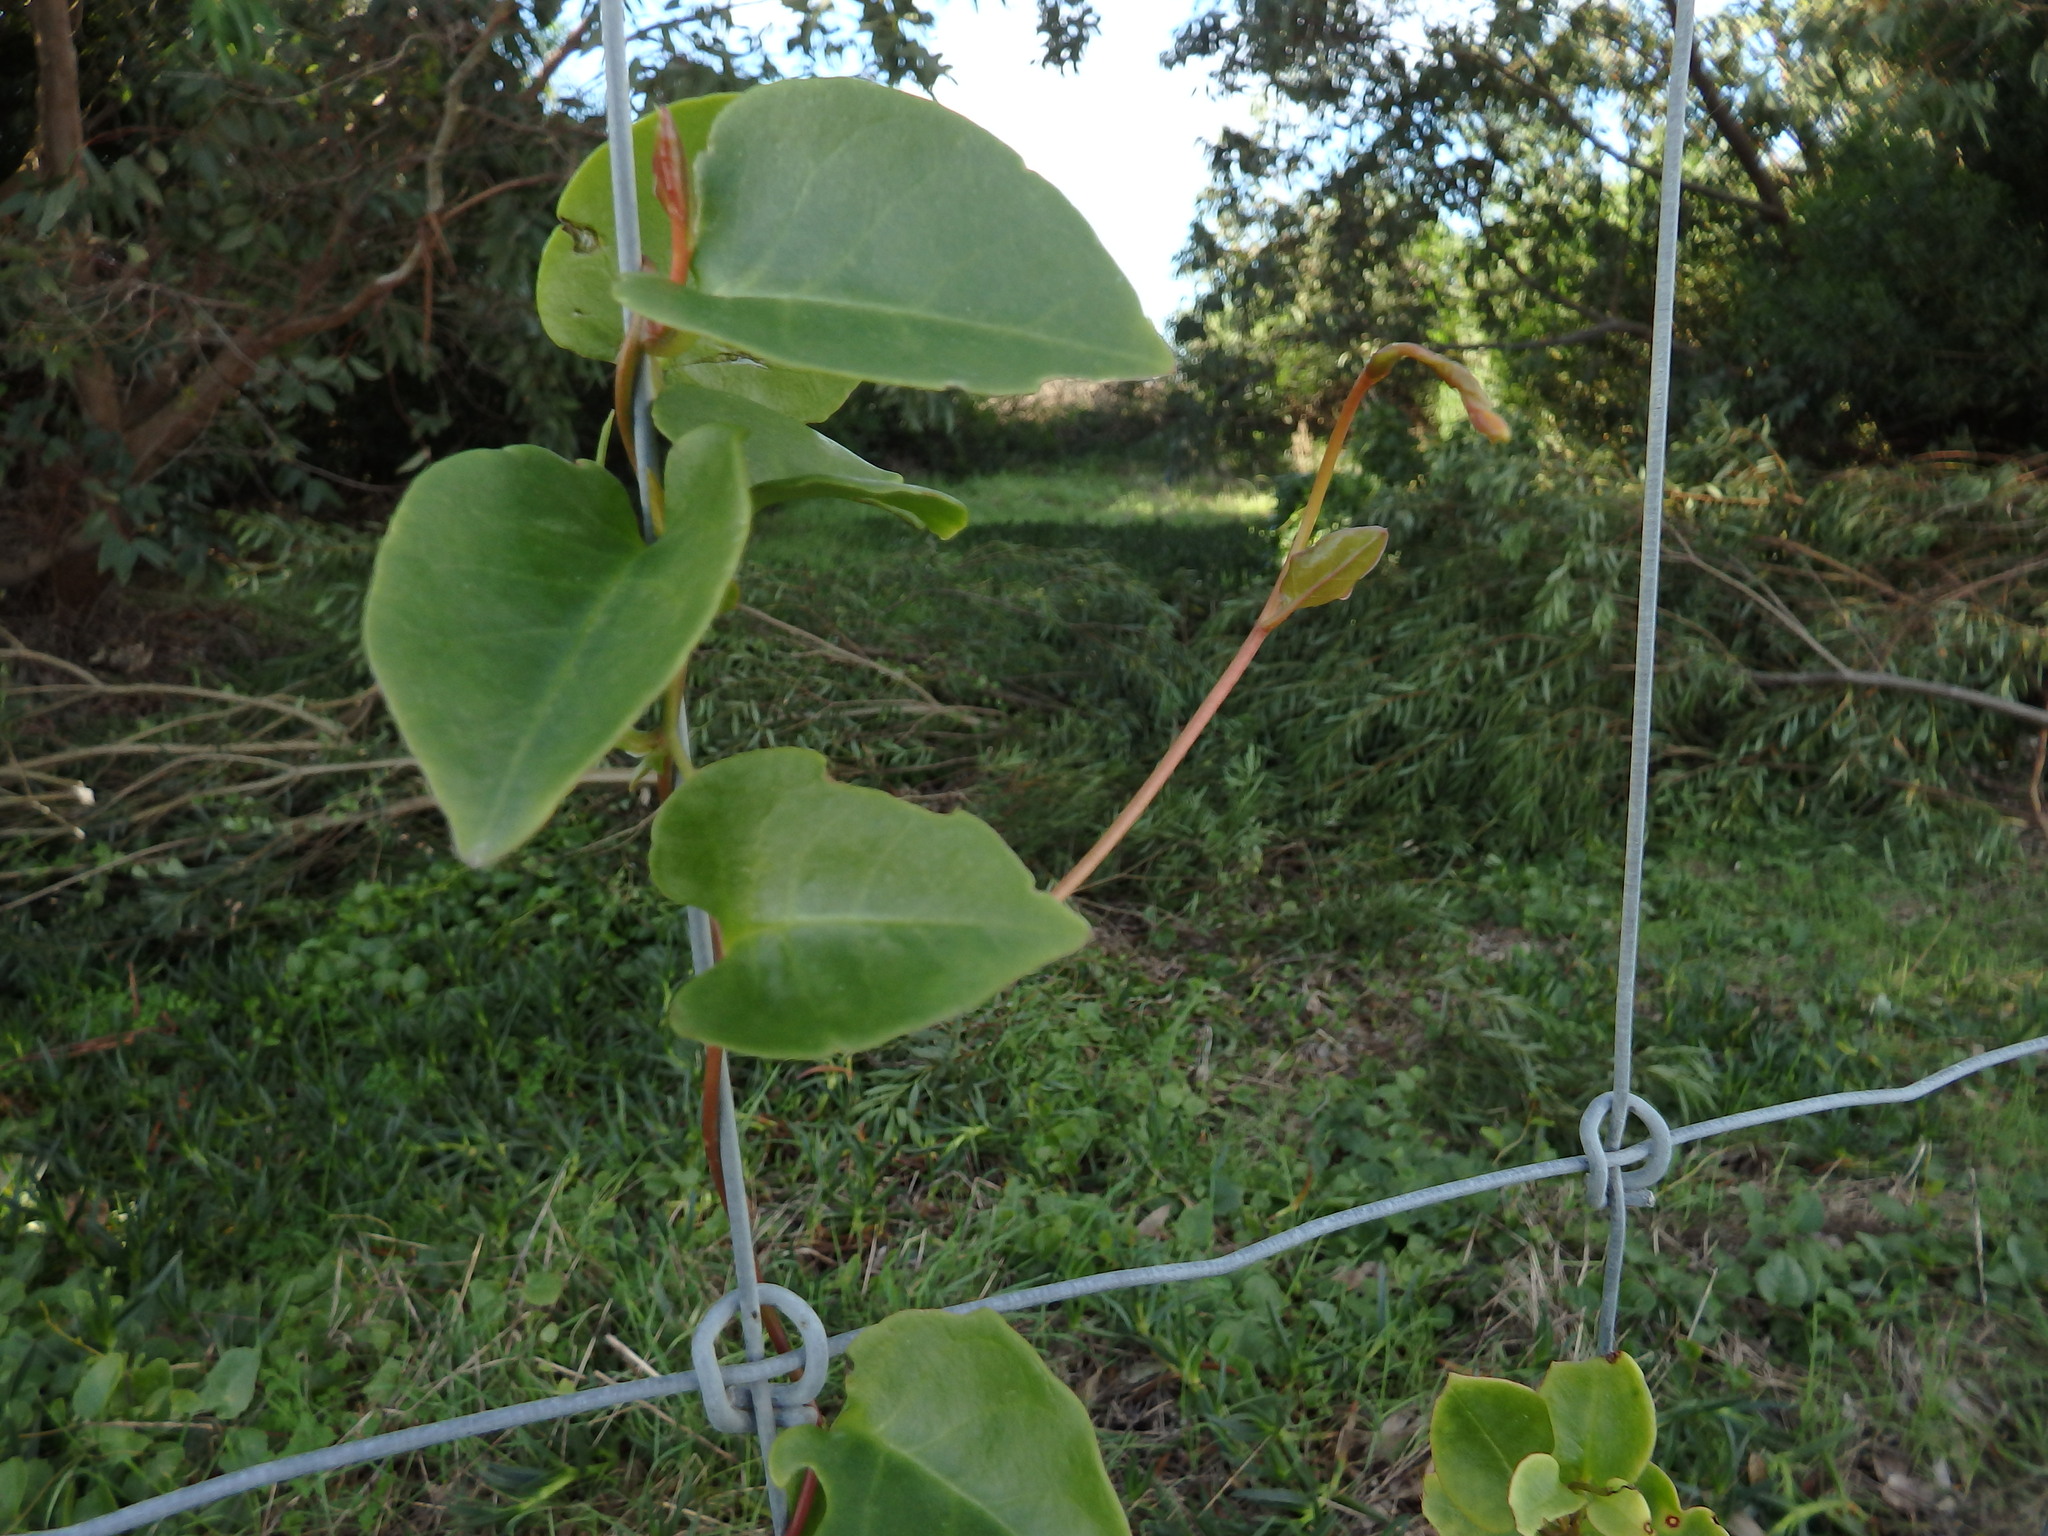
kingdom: Plantae
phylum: Tracheophyta
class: Magnoliopsida
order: Caryophyllales
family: Basellaceae
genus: Anredera
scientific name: Anredera cordifolia
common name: Heartleaf madeiravine
